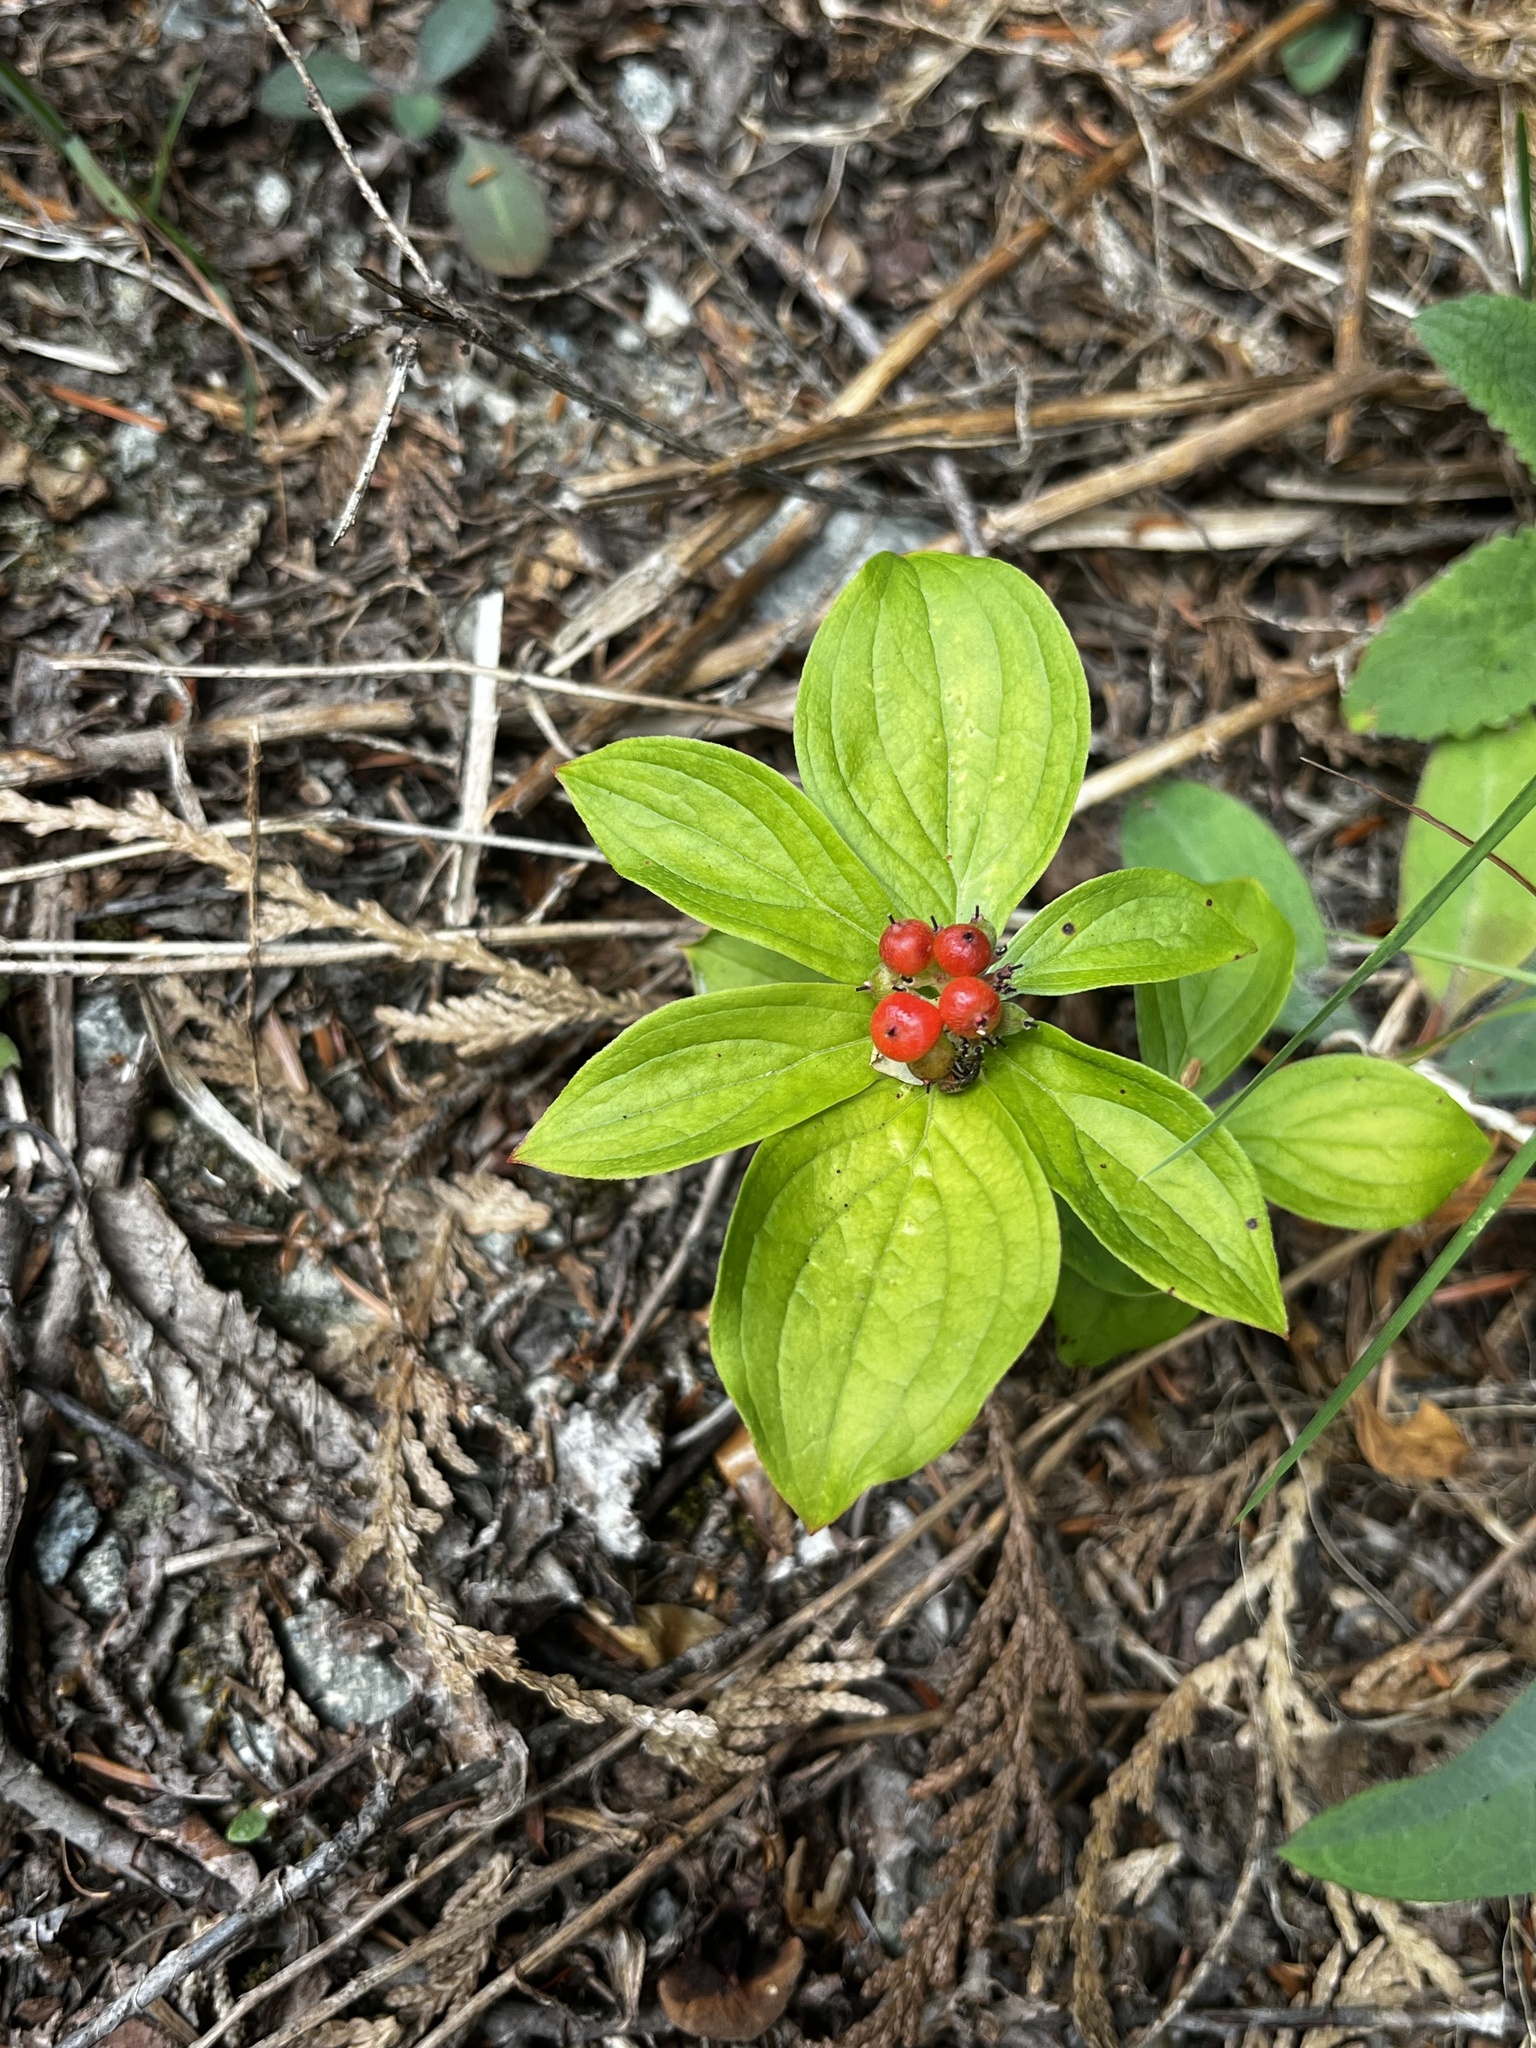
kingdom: Plantae
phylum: Tracheophyta
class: Magnoliopsida
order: Cornales
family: Cornaceae
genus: Cornus
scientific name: Cornus unalaschkensis
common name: Alaska bunchberry
